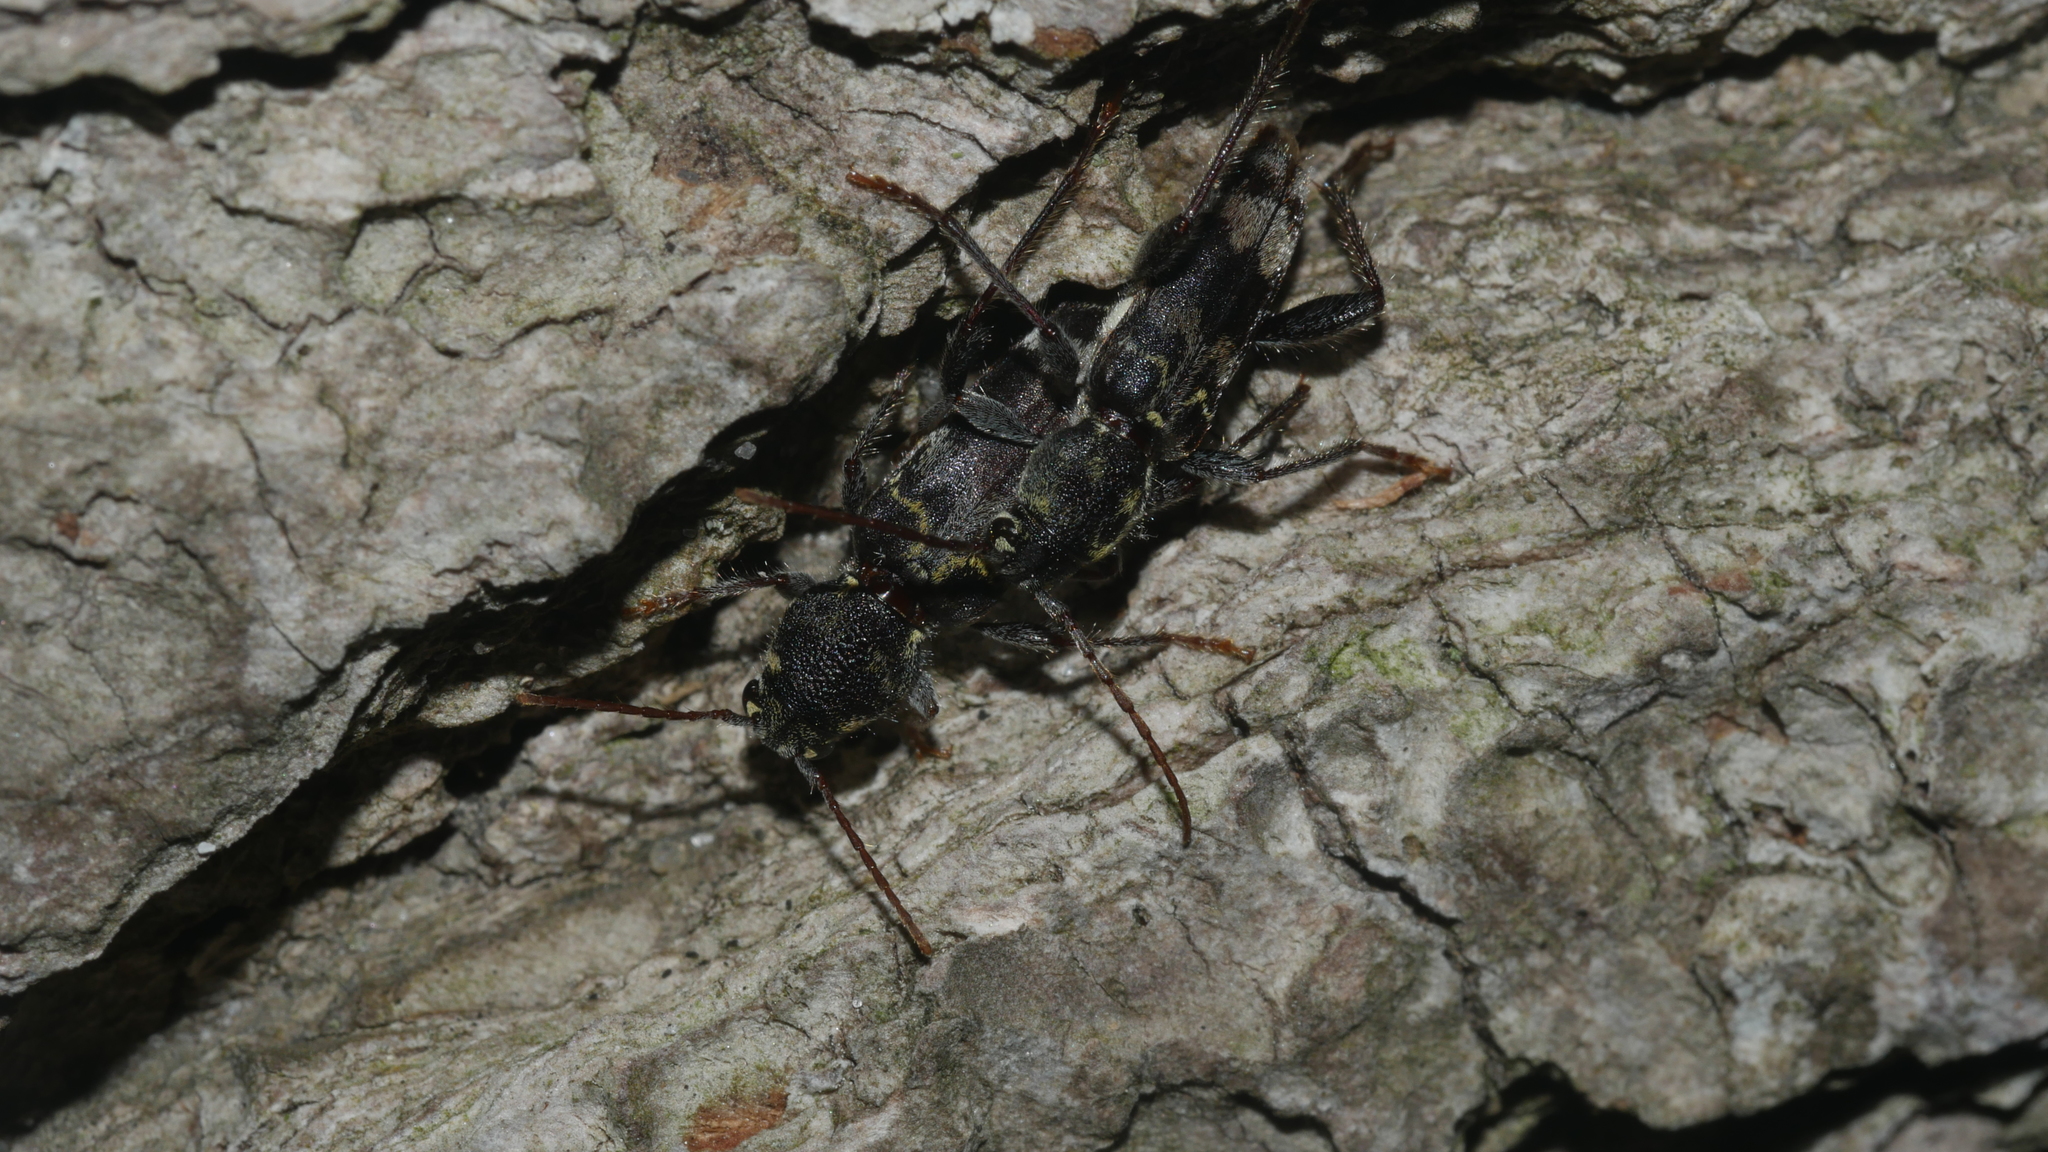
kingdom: Animalia
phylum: Arthropoda
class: Insecta
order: Coleoptera
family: Cerambycidae
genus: Xylotrechus
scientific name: Xylotrechus colonus
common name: Long-horned beetle
